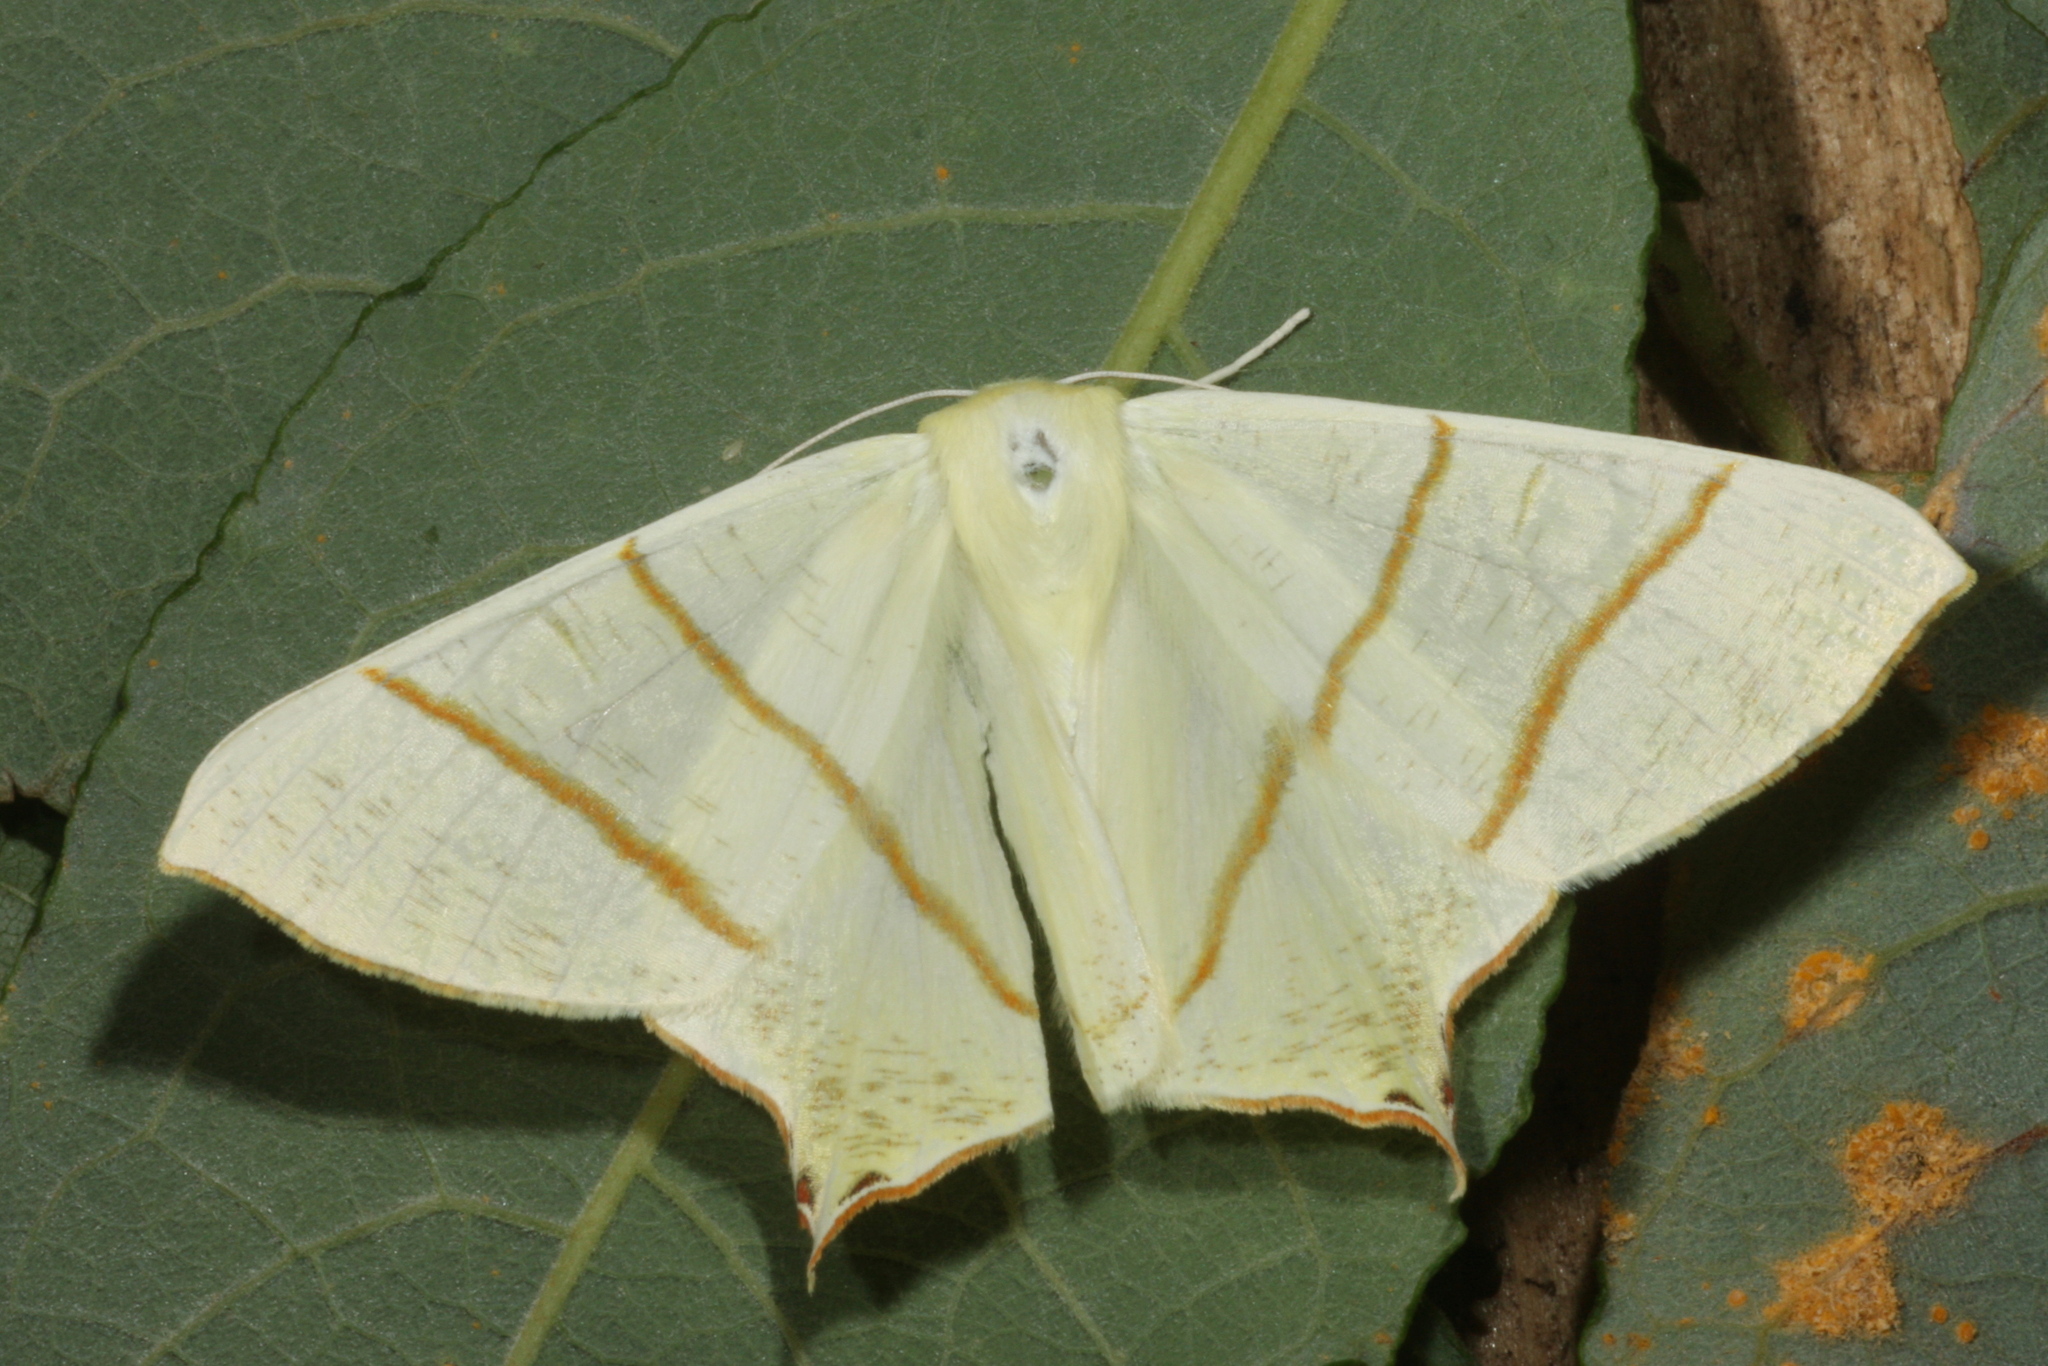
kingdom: Animalia
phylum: Arthropoda
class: Insecta
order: Lepidoptera
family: Geometridae
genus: Ourapteryx
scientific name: Ourapteryx sambucaria
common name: Swallow-tailed moth
